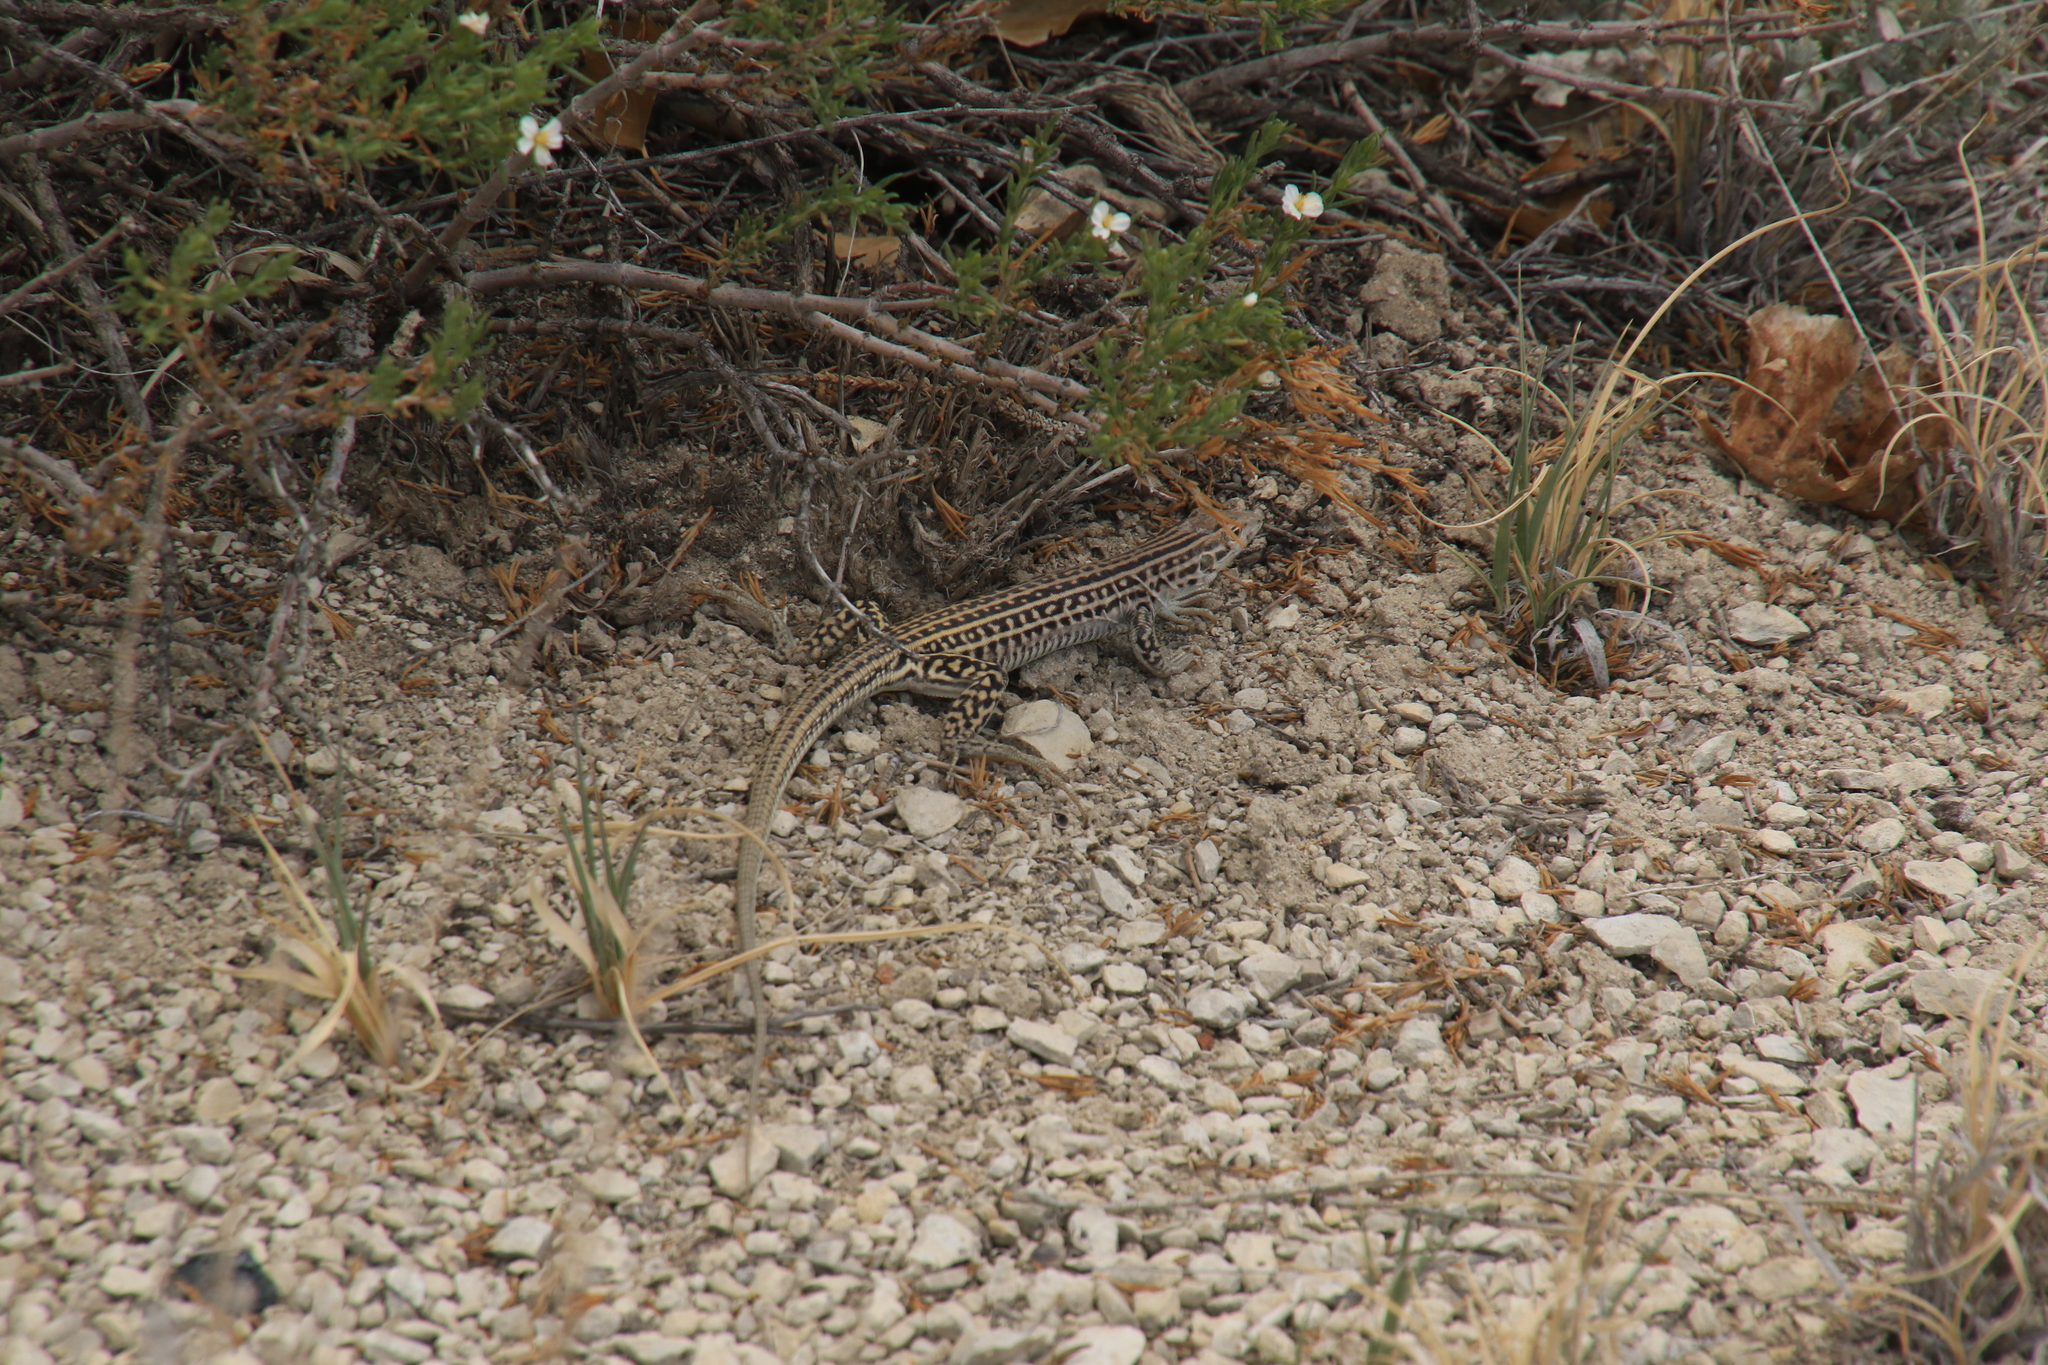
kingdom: Animalia
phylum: Chordata
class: Squamata
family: Teiidae
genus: Aspidoscelis
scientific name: Aspidoscelis neotesselatus
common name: Colorado checkered whiptail
